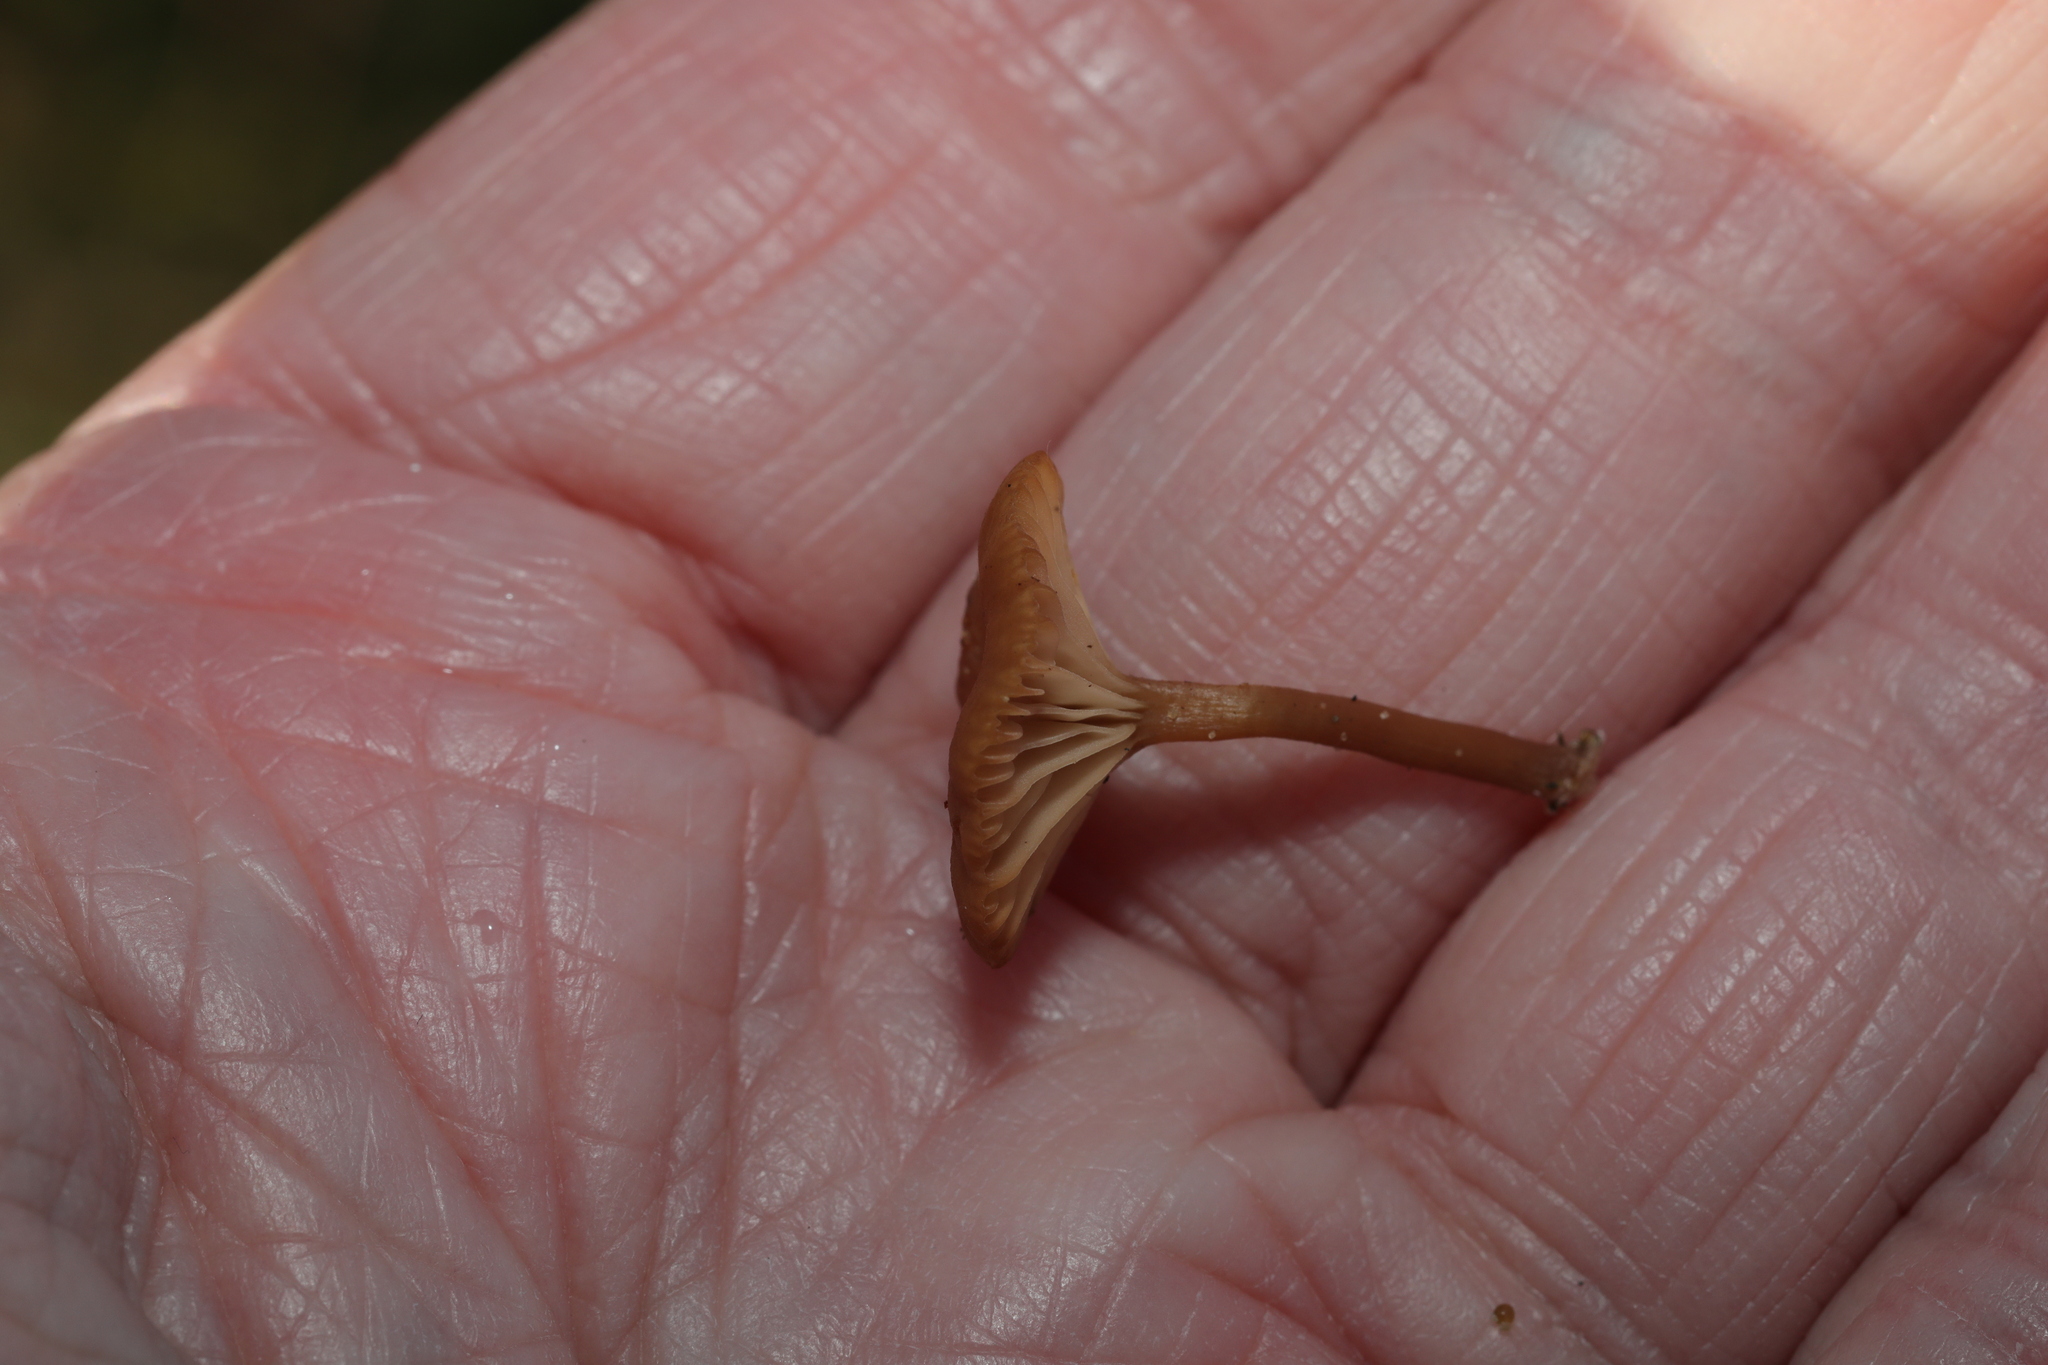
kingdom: Fungi
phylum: Basidiomycota
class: Agaricomycetes
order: Agaricales
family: Tricholomataceae
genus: Omphalina
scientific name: Omphalina pyxidata
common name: Cinnamon navel
